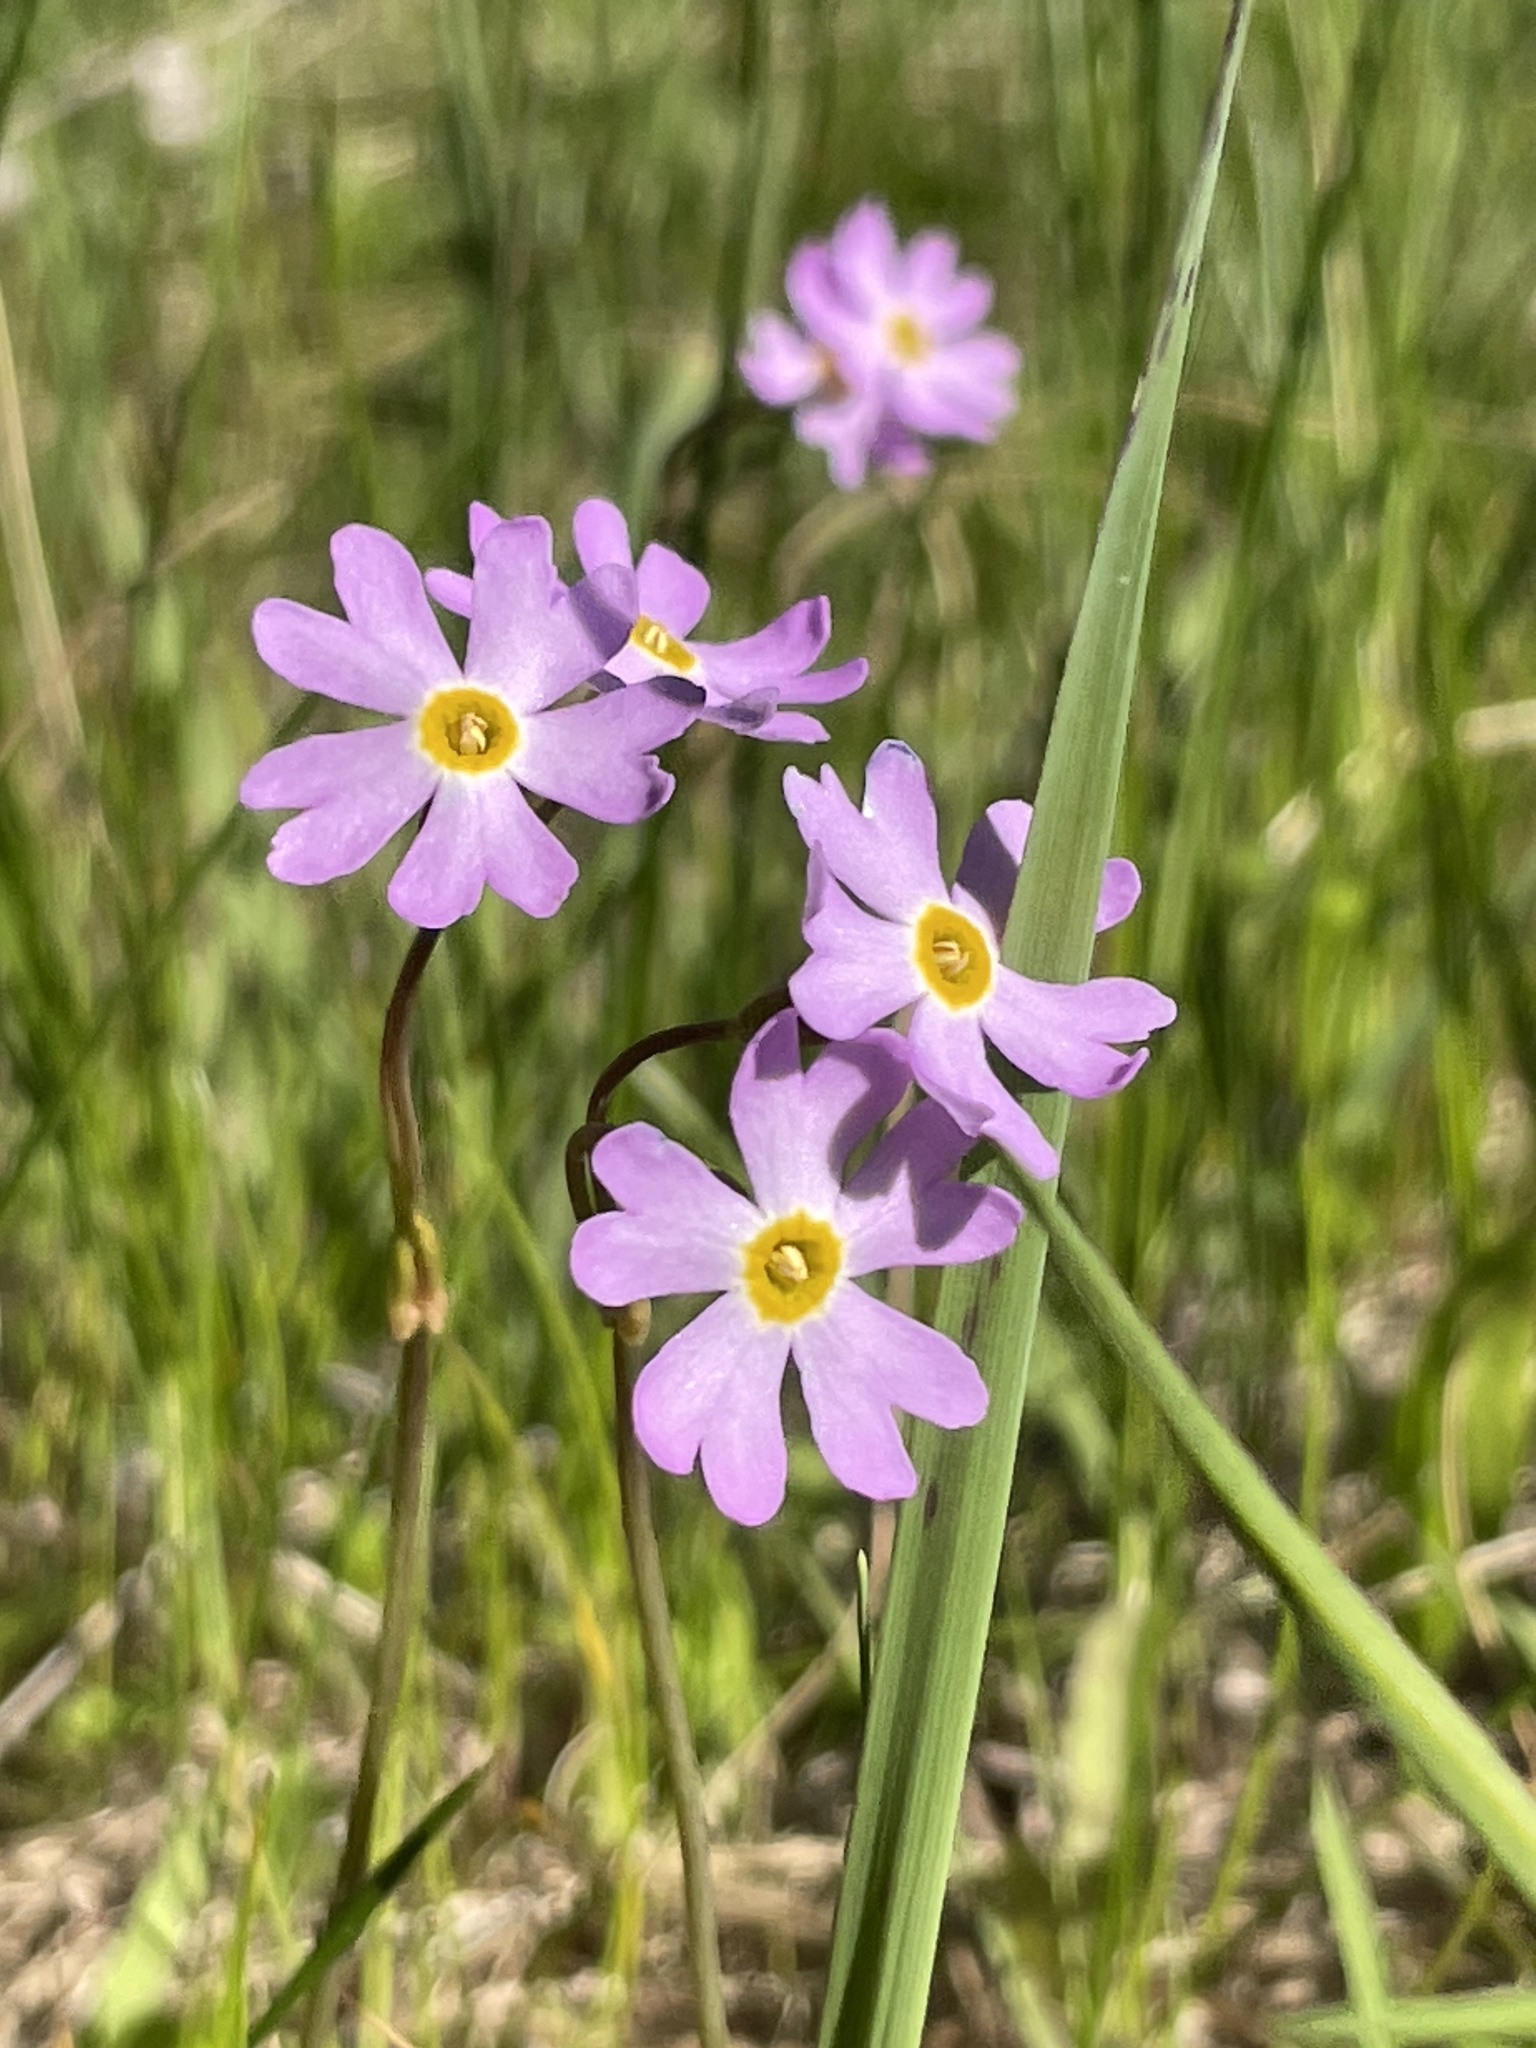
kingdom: Plantae
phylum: Tracheophyta
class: Magnoliopsida
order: Ericales
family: Primulaceae
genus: Primula
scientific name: Primula nutans
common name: Siberian primrose
